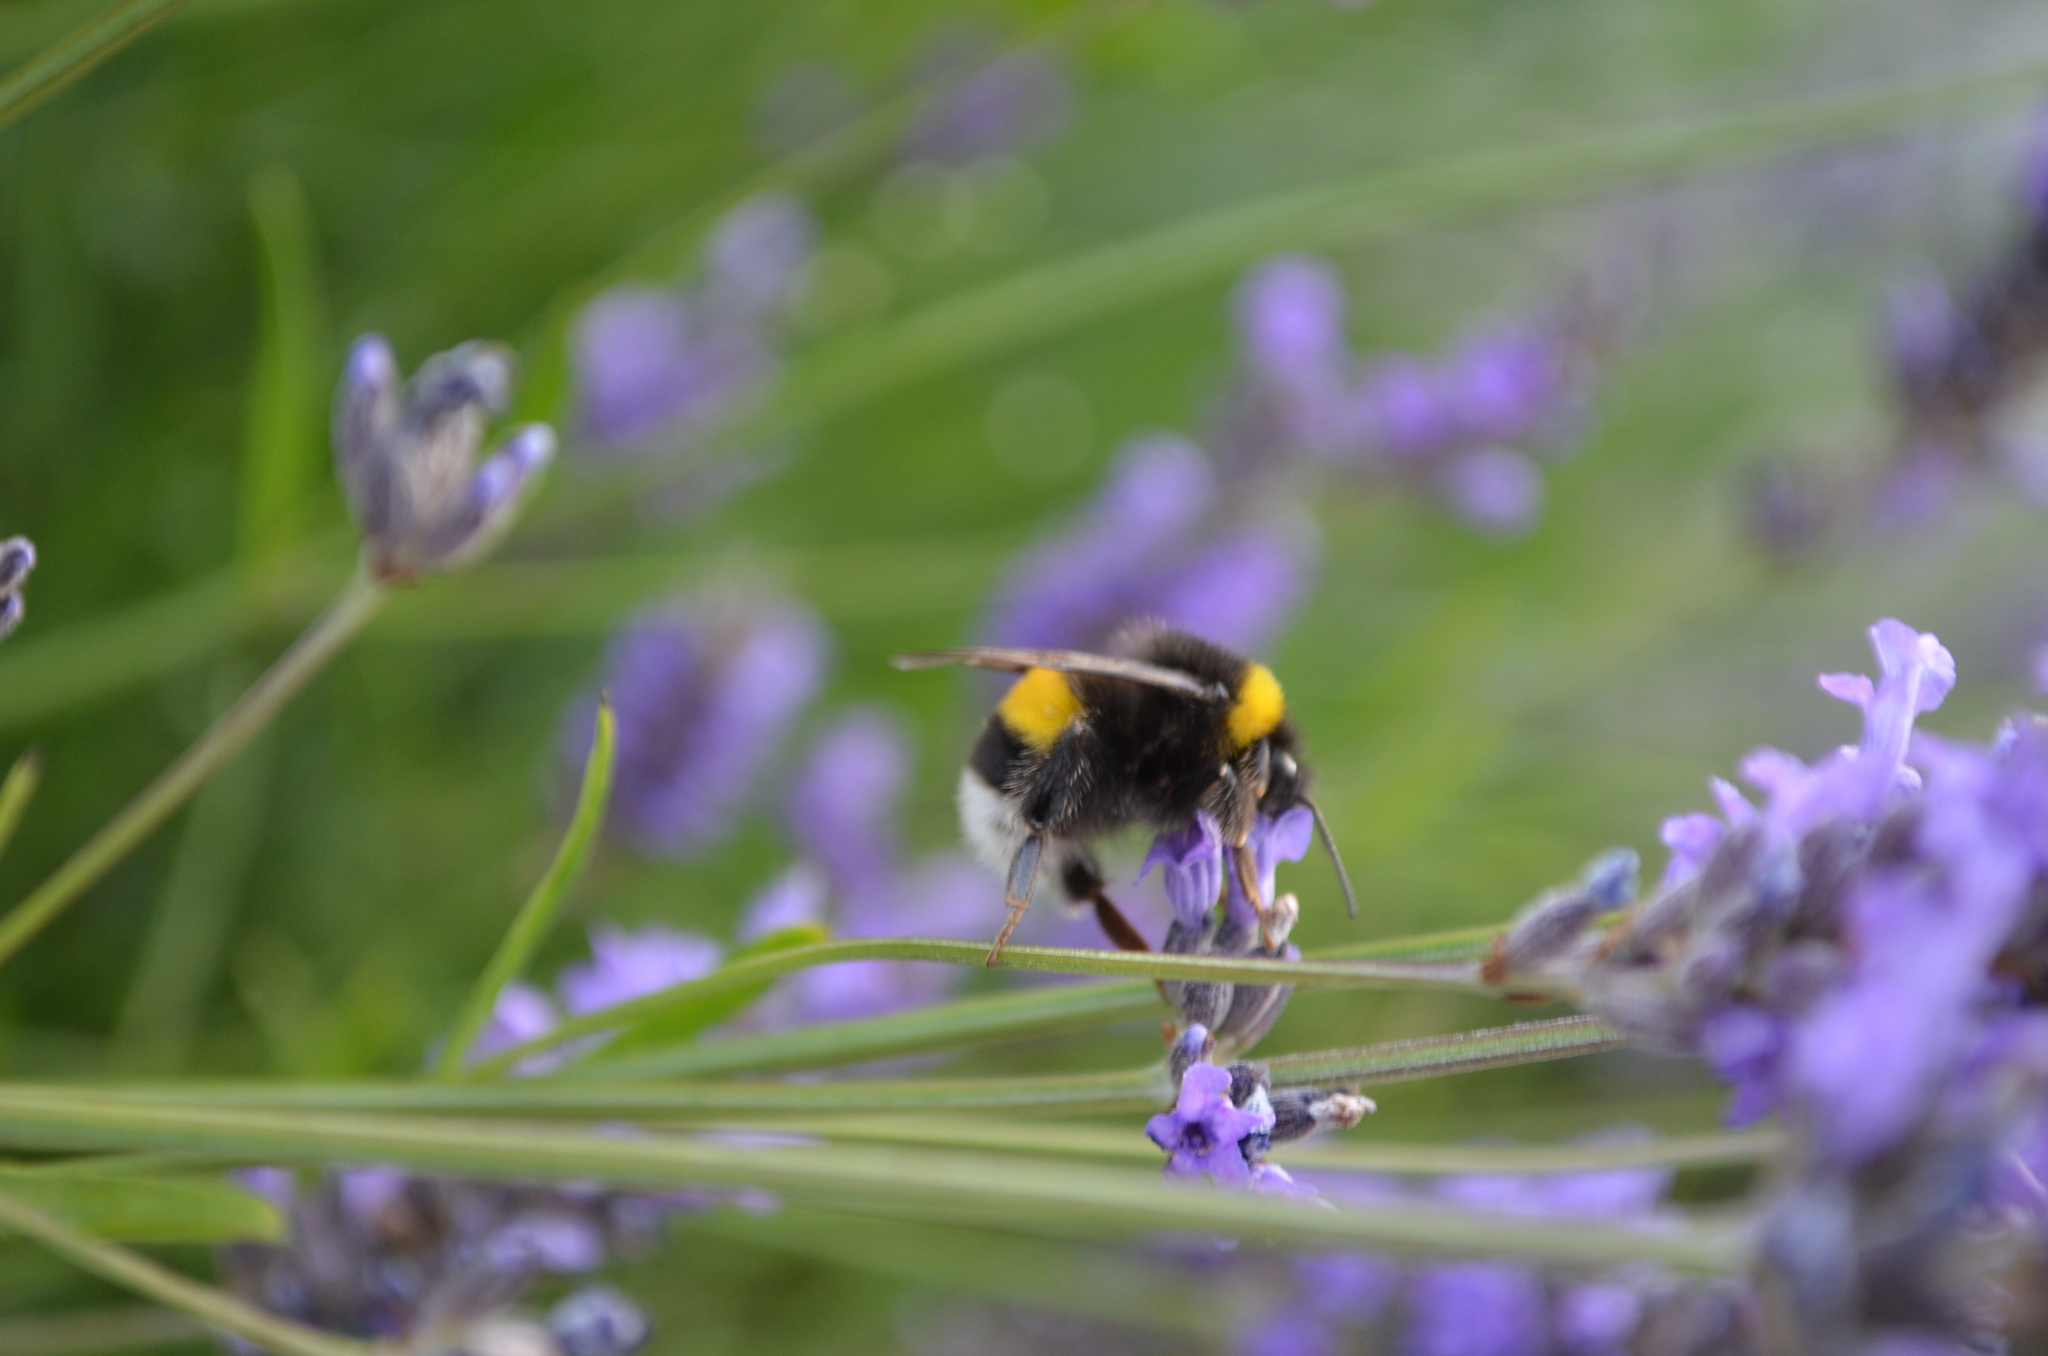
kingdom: Animalia
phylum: Arthropoda
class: Insecta
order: Hymenoptera
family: Apidae
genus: Bombus
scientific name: Bombus terrestris
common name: Buff-tailed bumblebee
